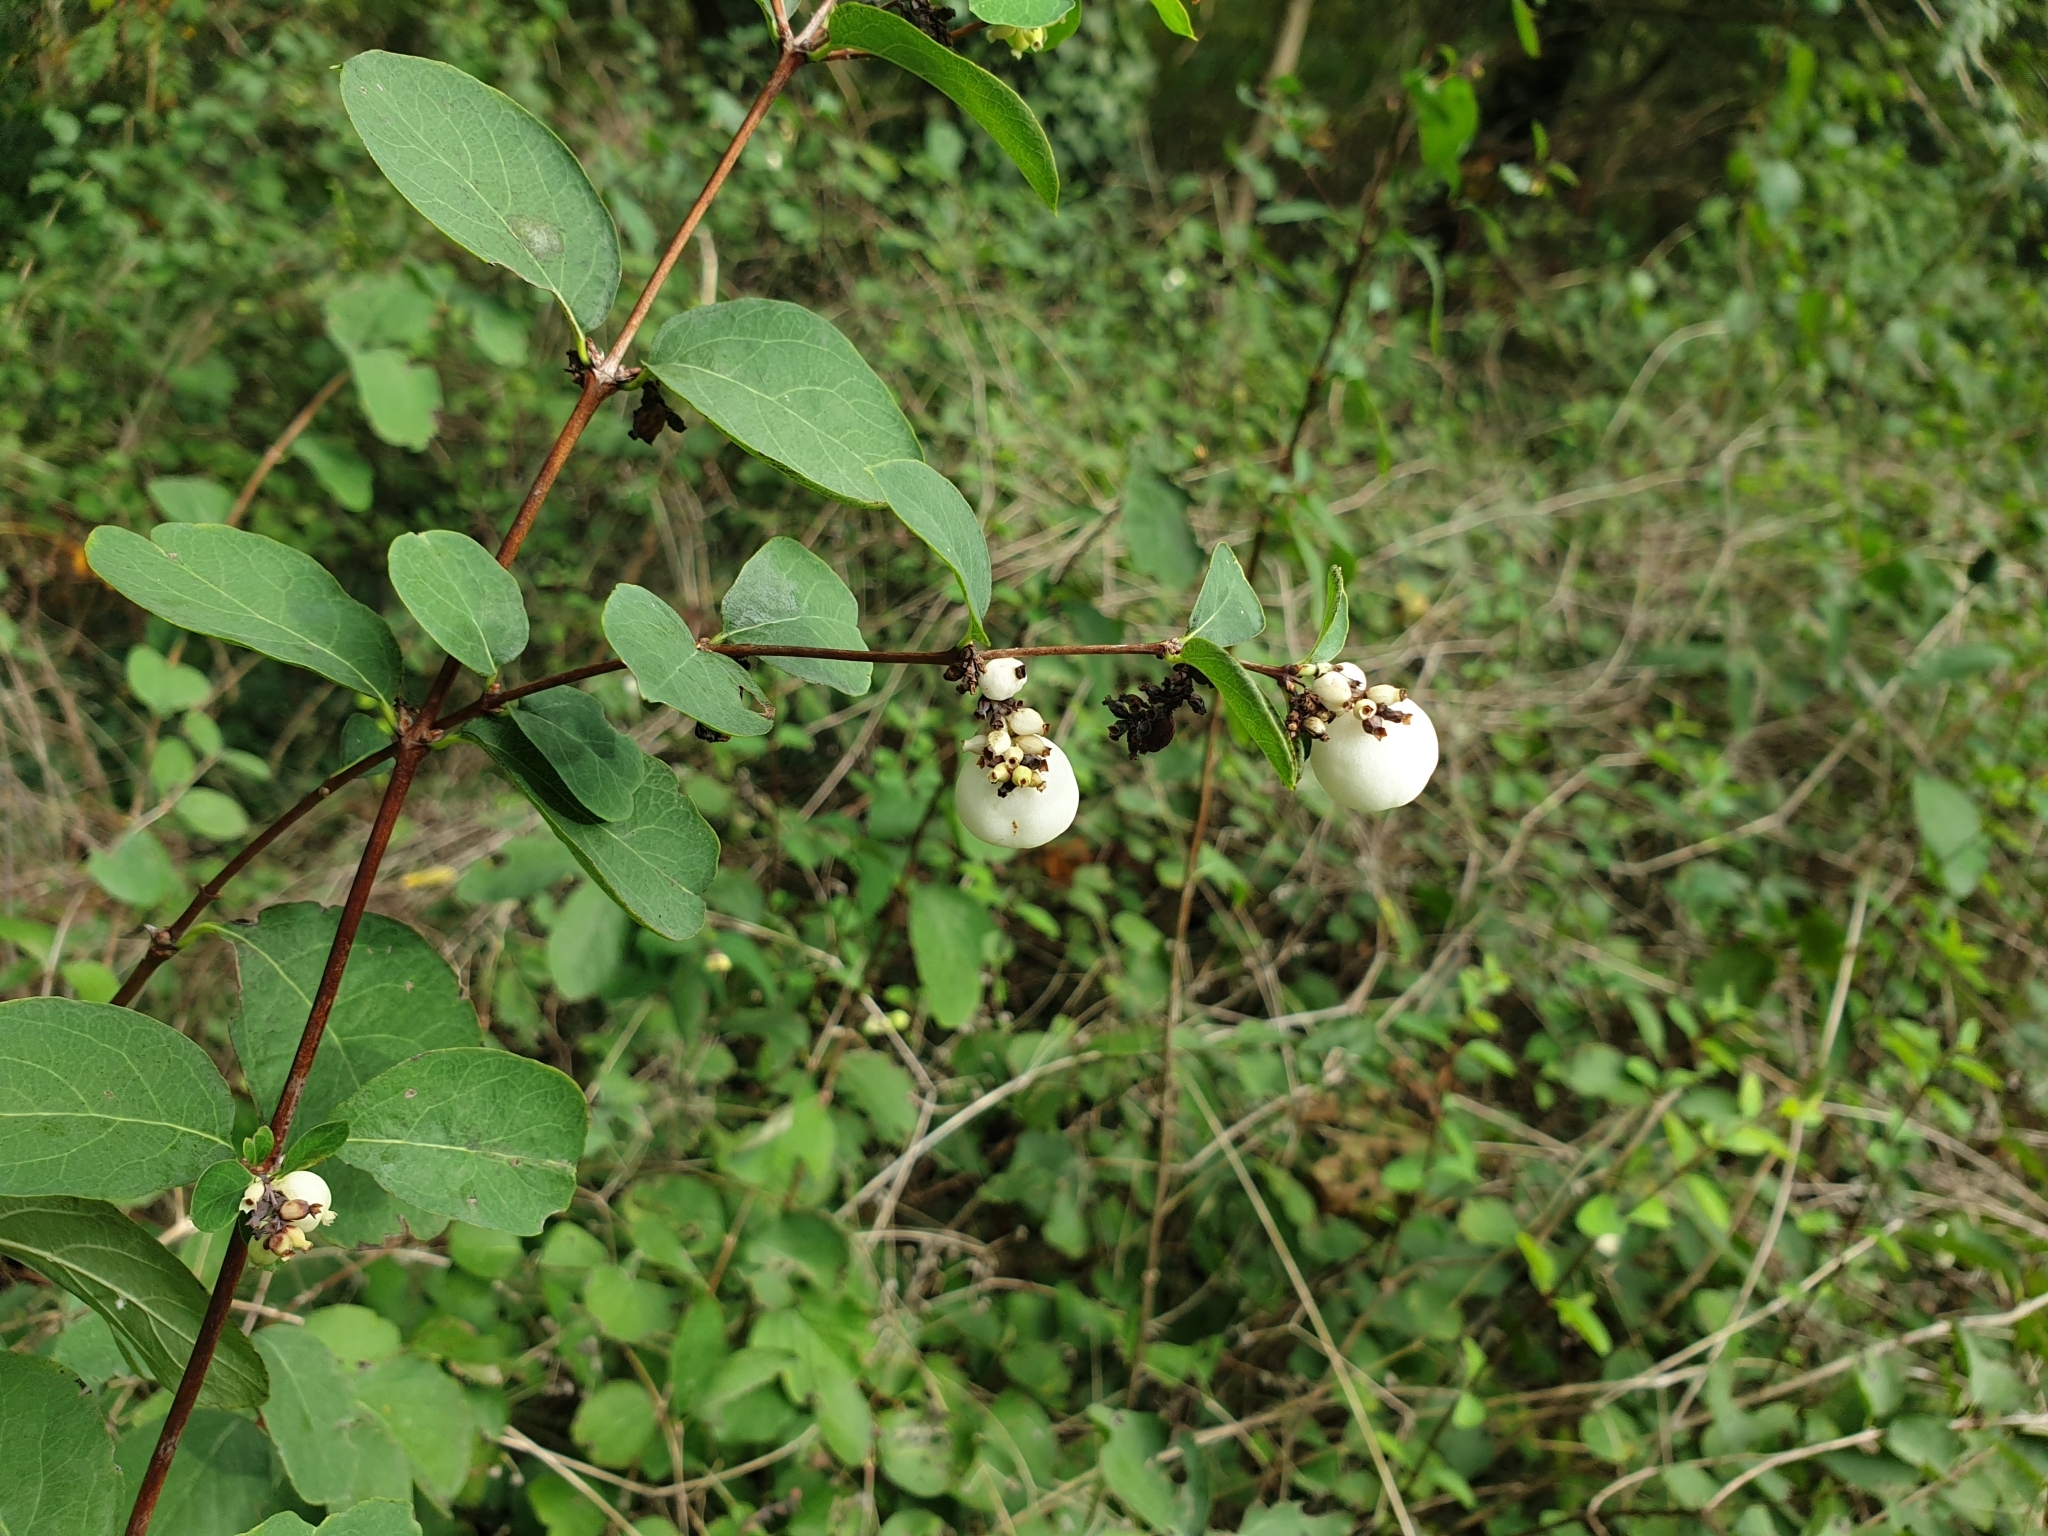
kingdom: Plantae
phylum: Tracheophyta
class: Magnoliopsida
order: Dipsacales
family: Caprifoliaceae
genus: Symphoricarpos
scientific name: Symphoricarpos albus
